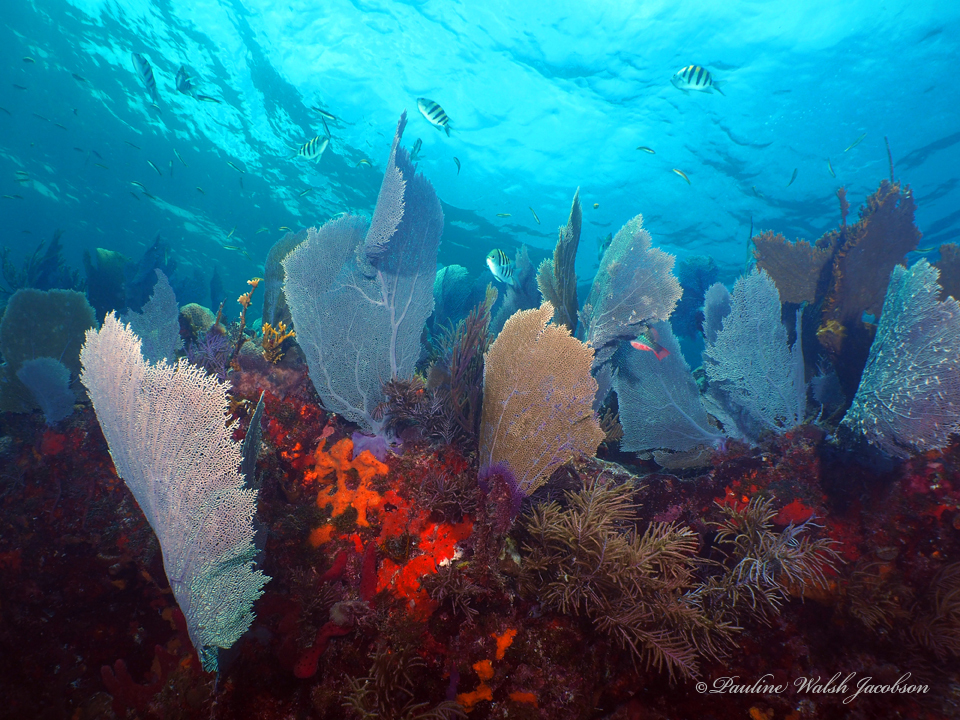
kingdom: Animalia
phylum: Cnidaria
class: Anthozoa
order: Malacalcyonacea
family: Gorgoniidae
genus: Gorgonia
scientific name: Gorgonia ventalina
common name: Common sea fan
